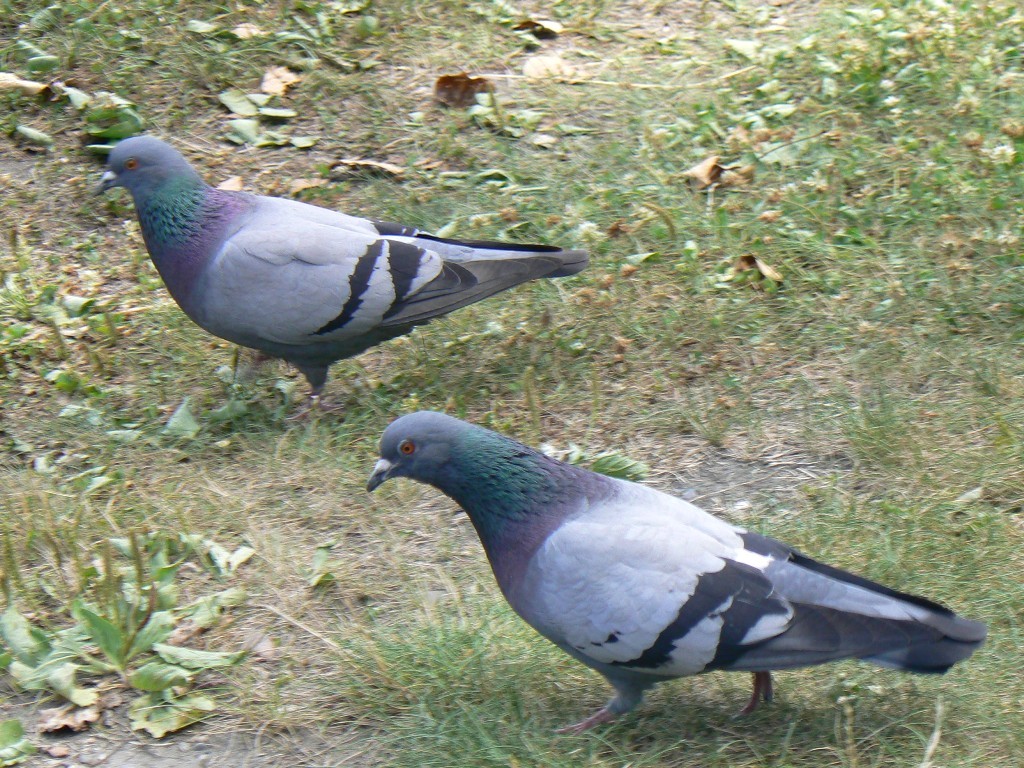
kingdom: Animalia
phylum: Chordata
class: Aves
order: Columbiformes
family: Columbidae
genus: Columba
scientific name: Columba livia
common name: Rock pigeon
